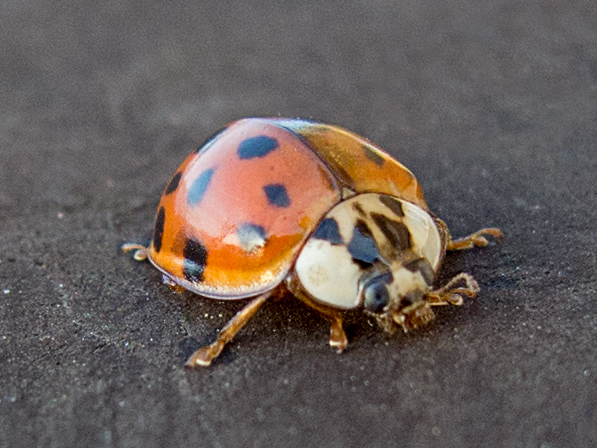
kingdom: Animalia
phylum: Arthropoda
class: Insecta
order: Coleoptera
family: Coccinellidae
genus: Harmonia
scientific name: Harmonia axyridis
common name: Harlequin ladybird
